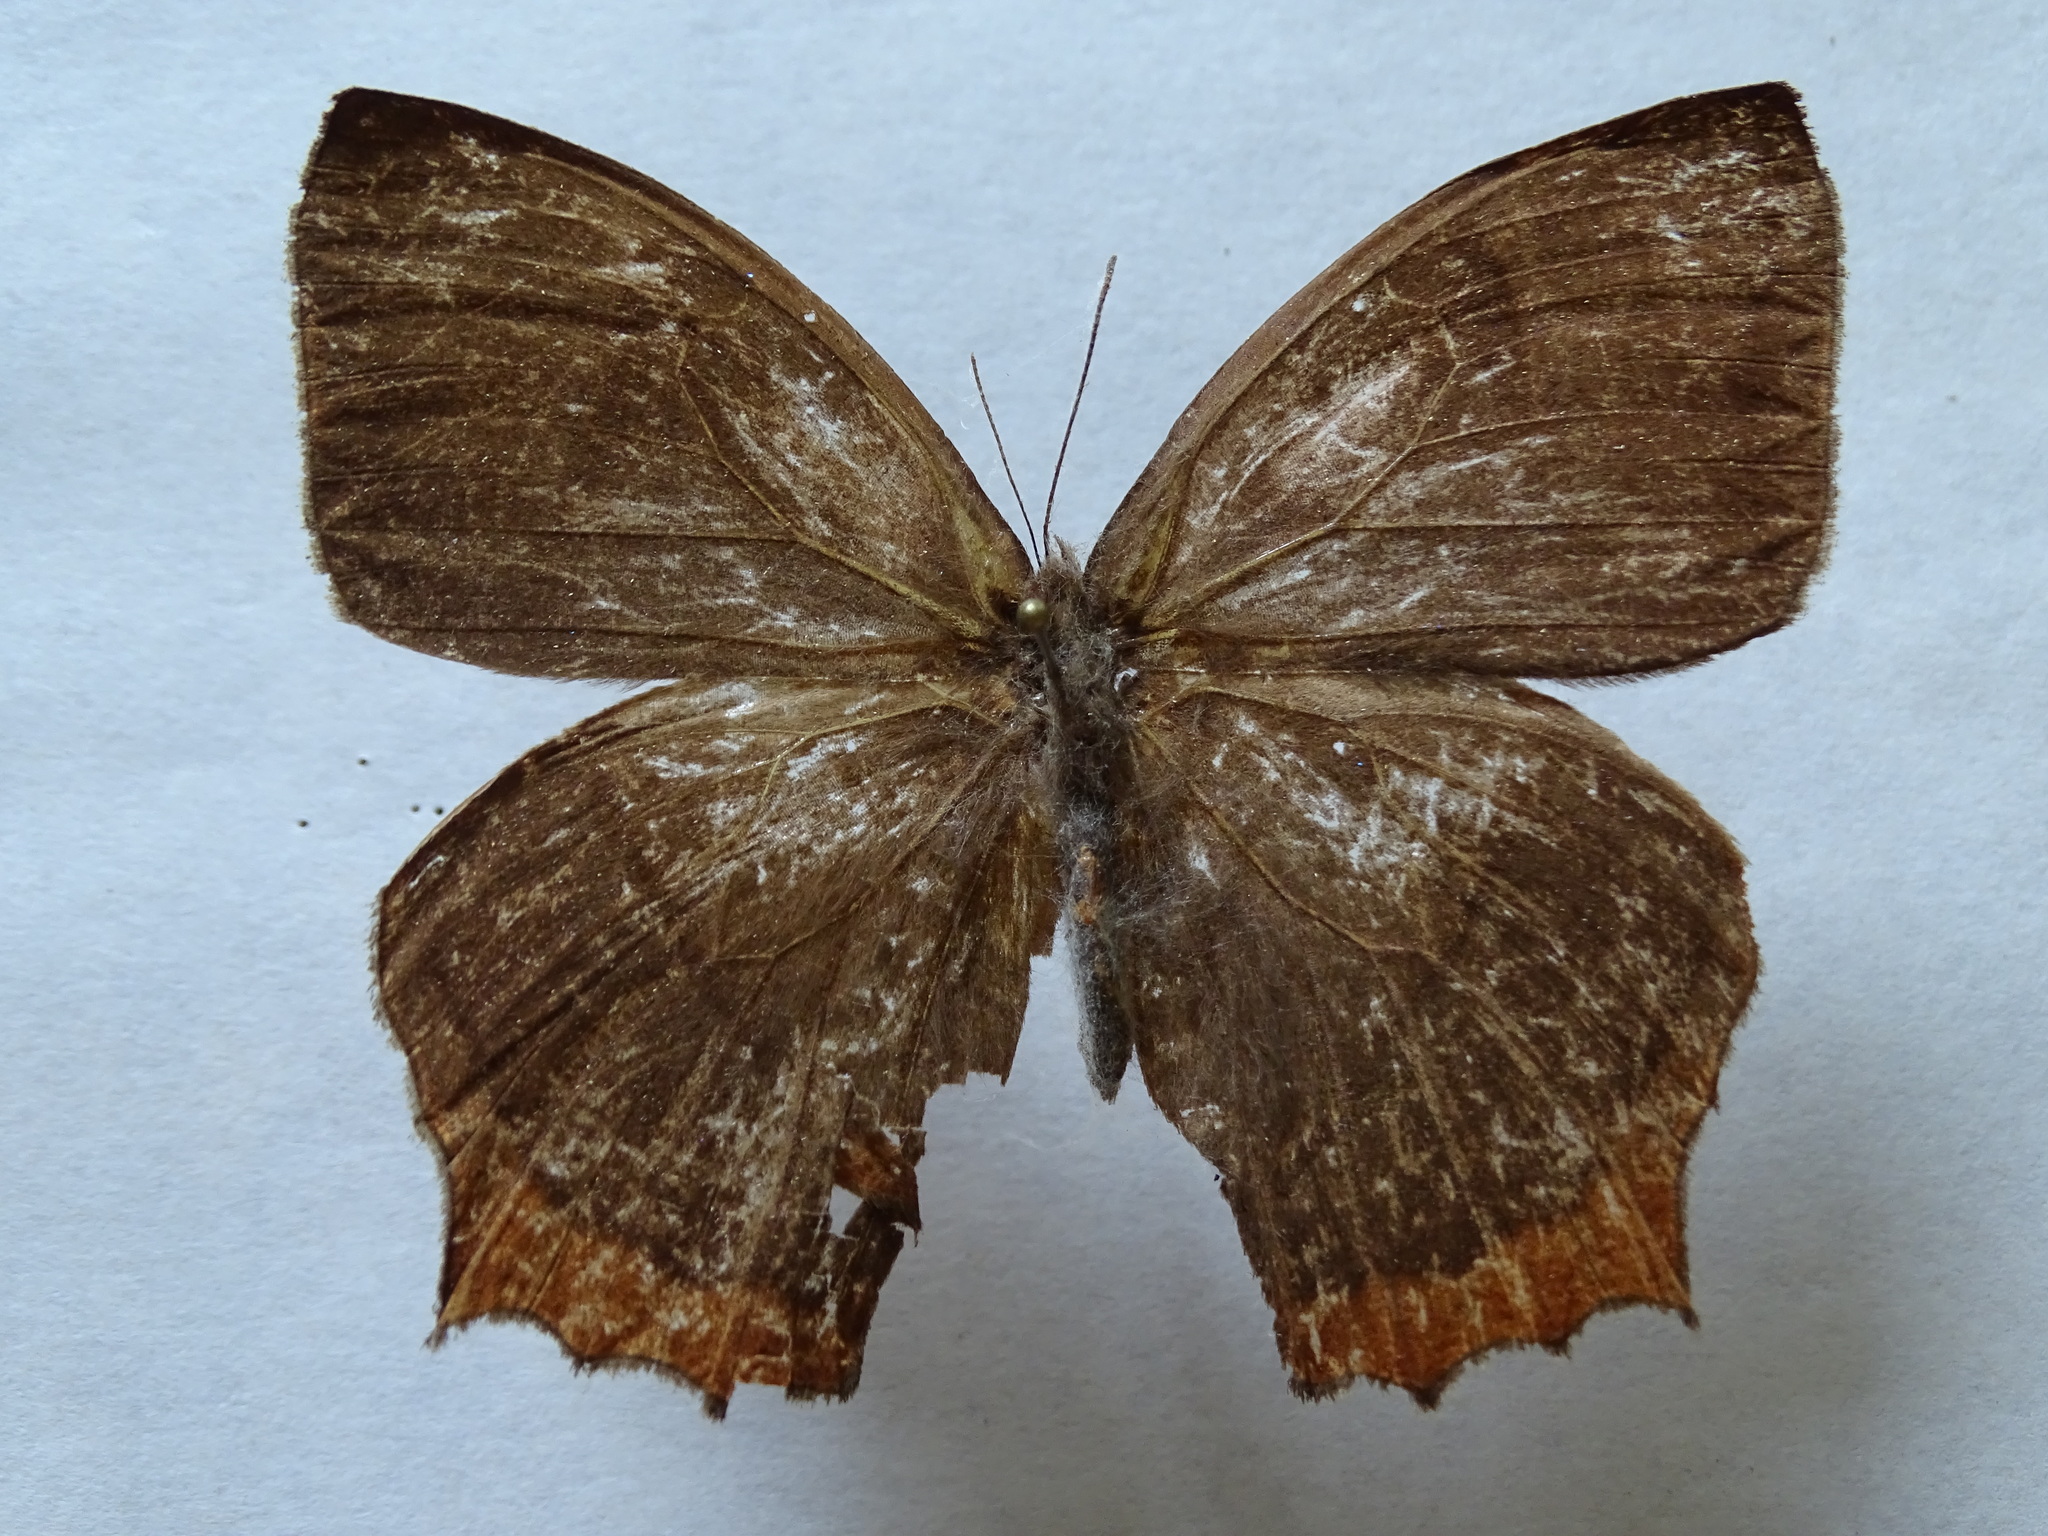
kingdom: Animalia
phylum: Arthropoda
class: Insecta
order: Lepidoptera
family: Nymphalidae
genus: Taygetis
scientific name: Taygetis virgilia
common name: Stub-tailed satyr
